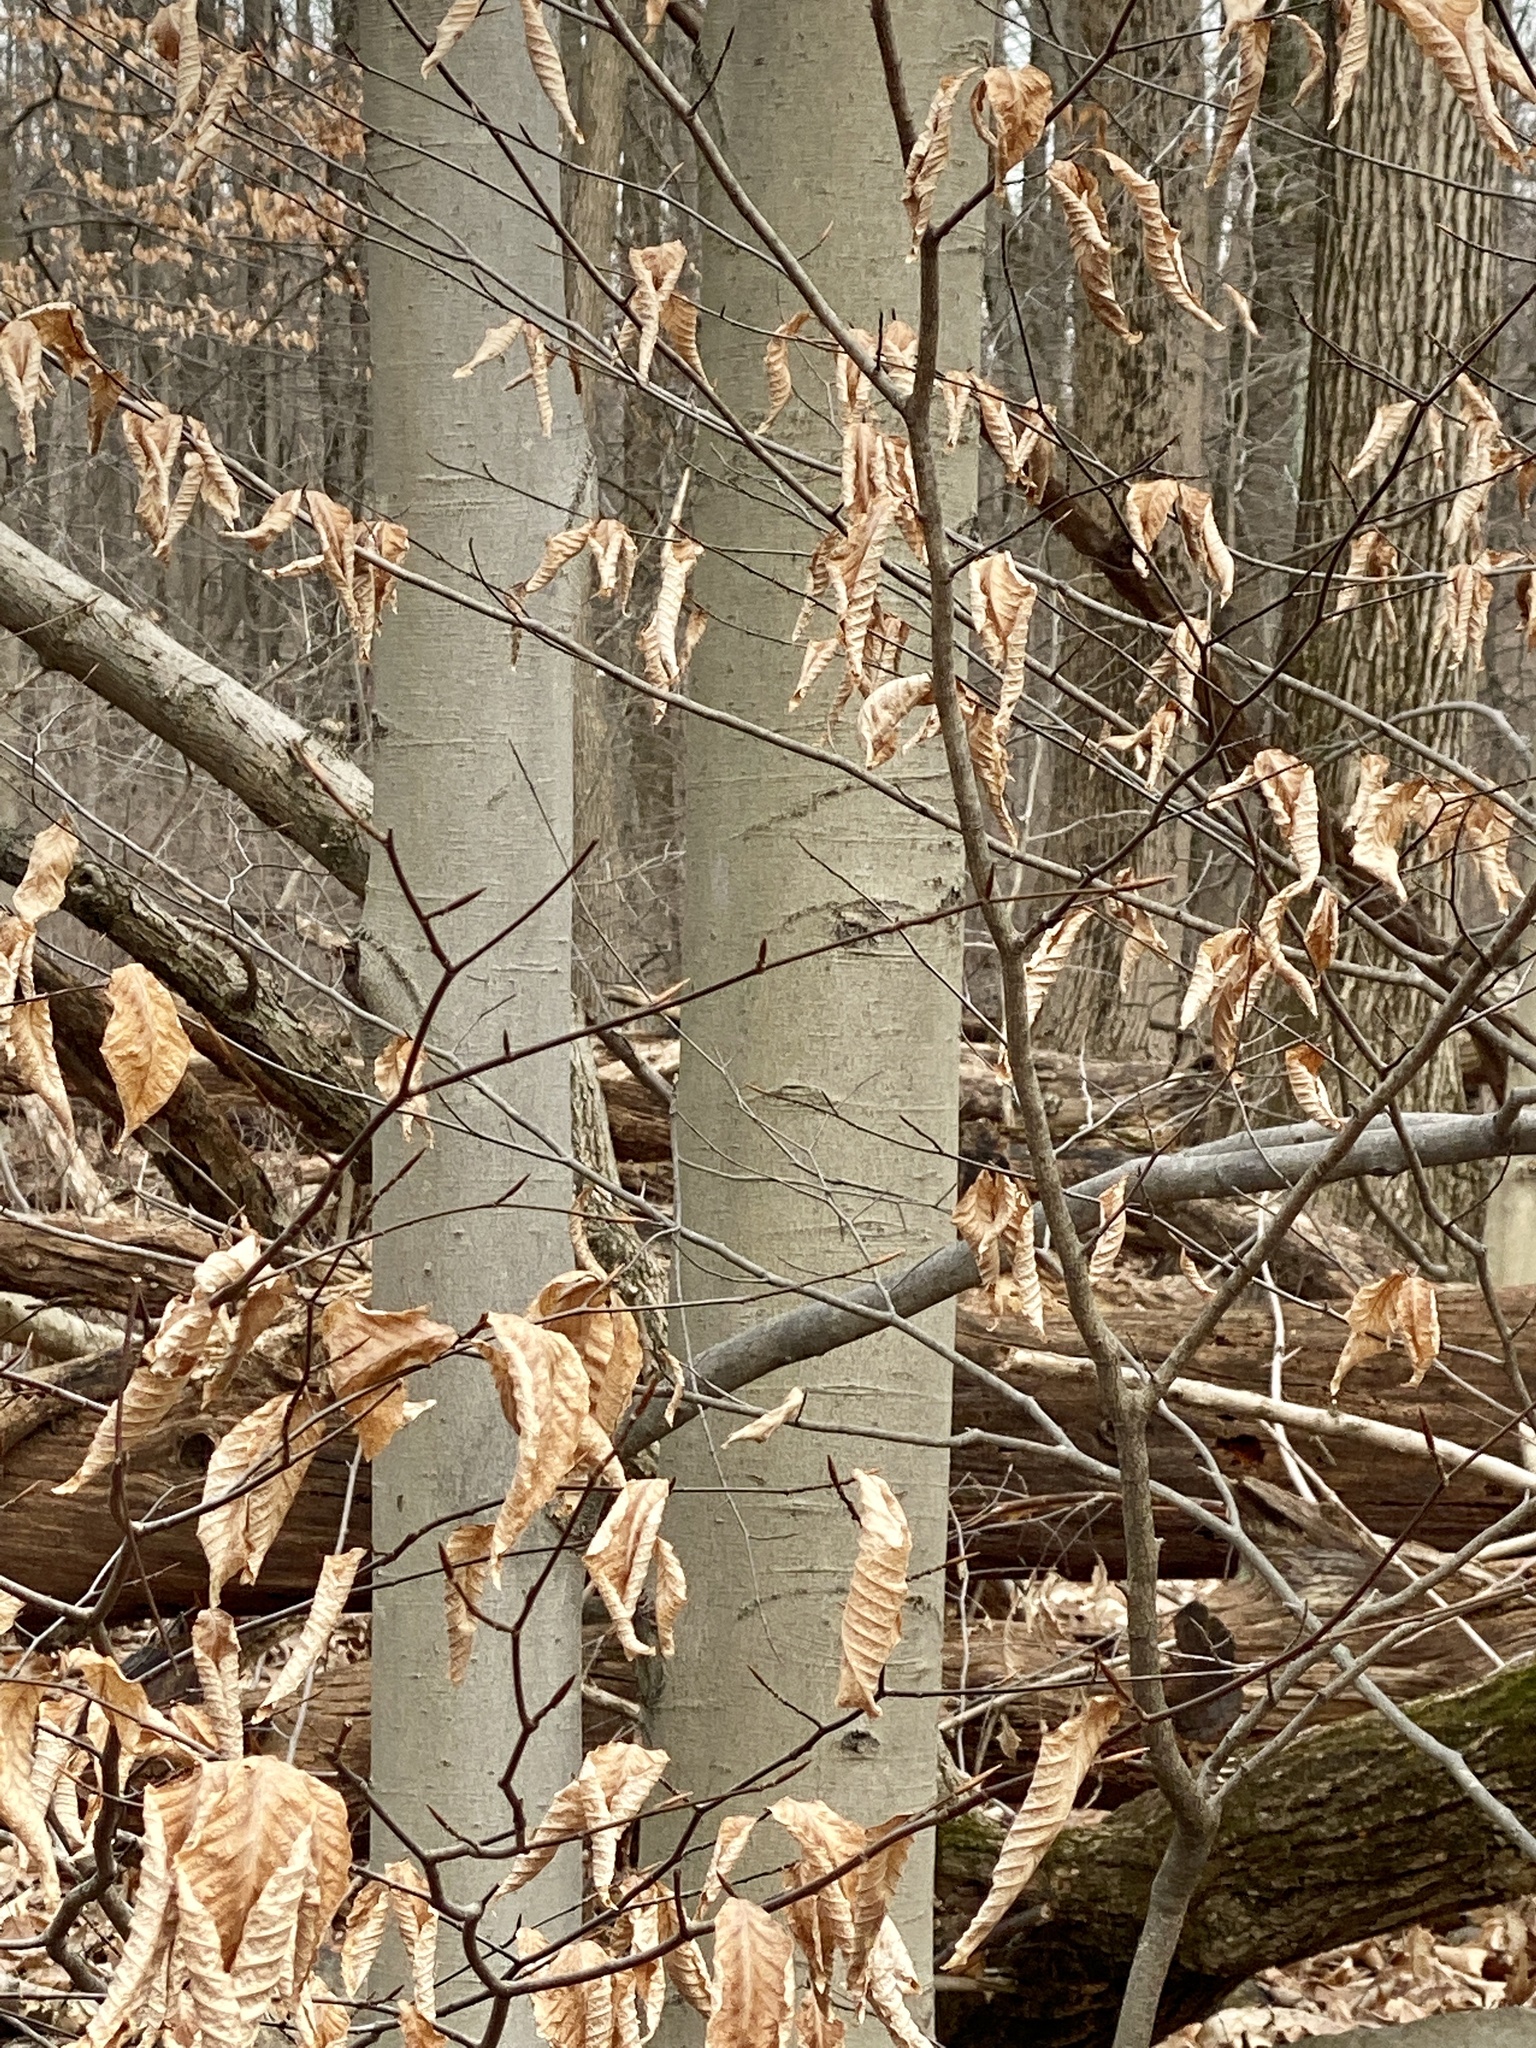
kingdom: Plantae
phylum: Tracheophyta
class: Magnoliopsida
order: Fagales
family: Fagaceae
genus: Fagus
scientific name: Fagus grandifolia
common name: American beech
